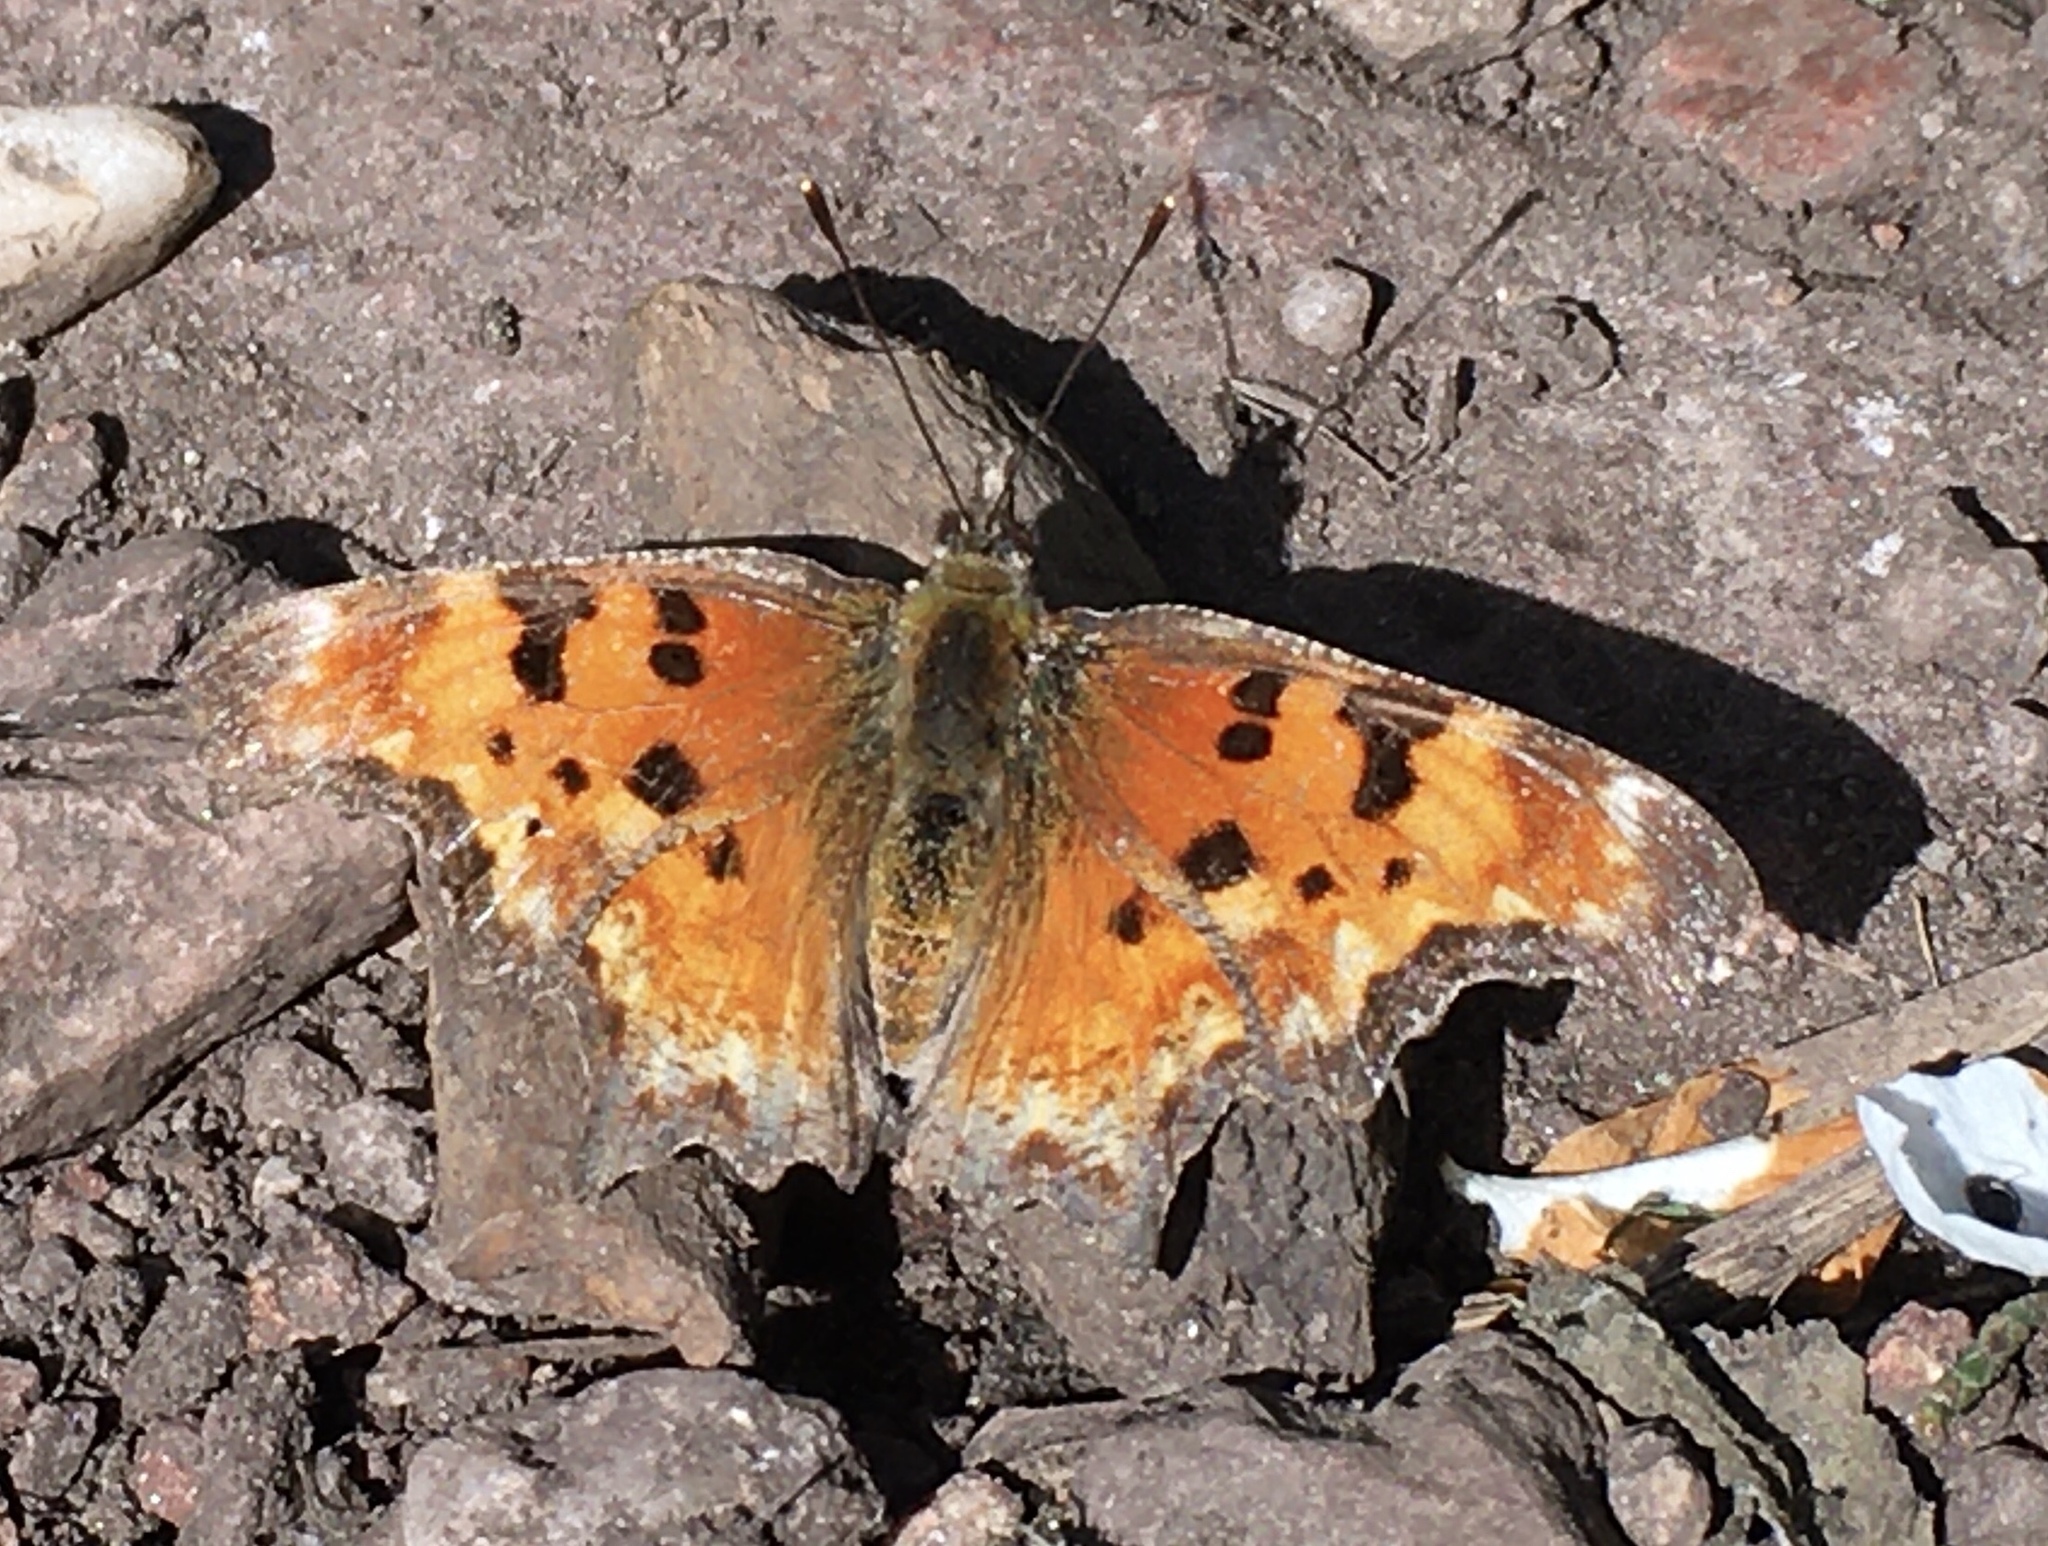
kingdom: Animalia
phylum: Arthropoda
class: Insecta
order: Lepidoptera
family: Nymphalidae
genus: Polygonia
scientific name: Polygonia gracilis
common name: Hoary comma
